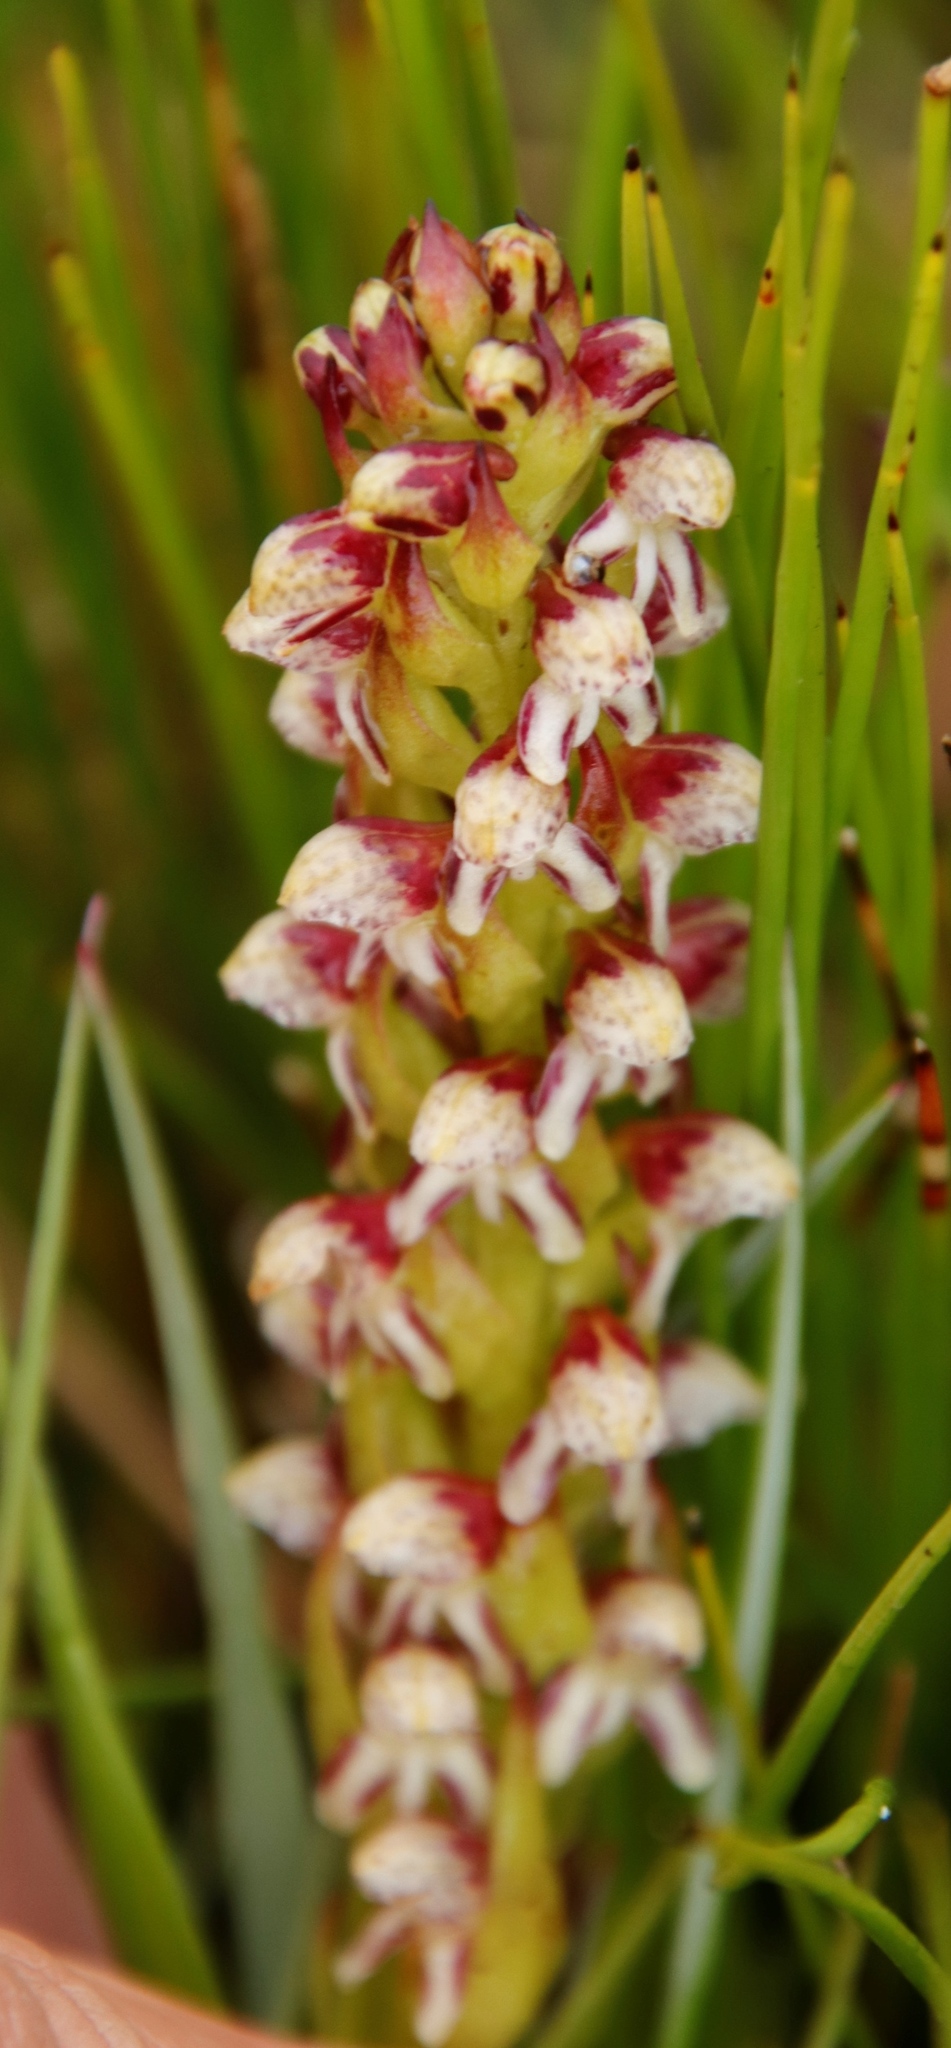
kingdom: Plantae
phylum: Tracheophyta
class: Liliopsida
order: Asparagales
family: Orchidaceae
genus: Disa
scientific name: Disa obtusa
